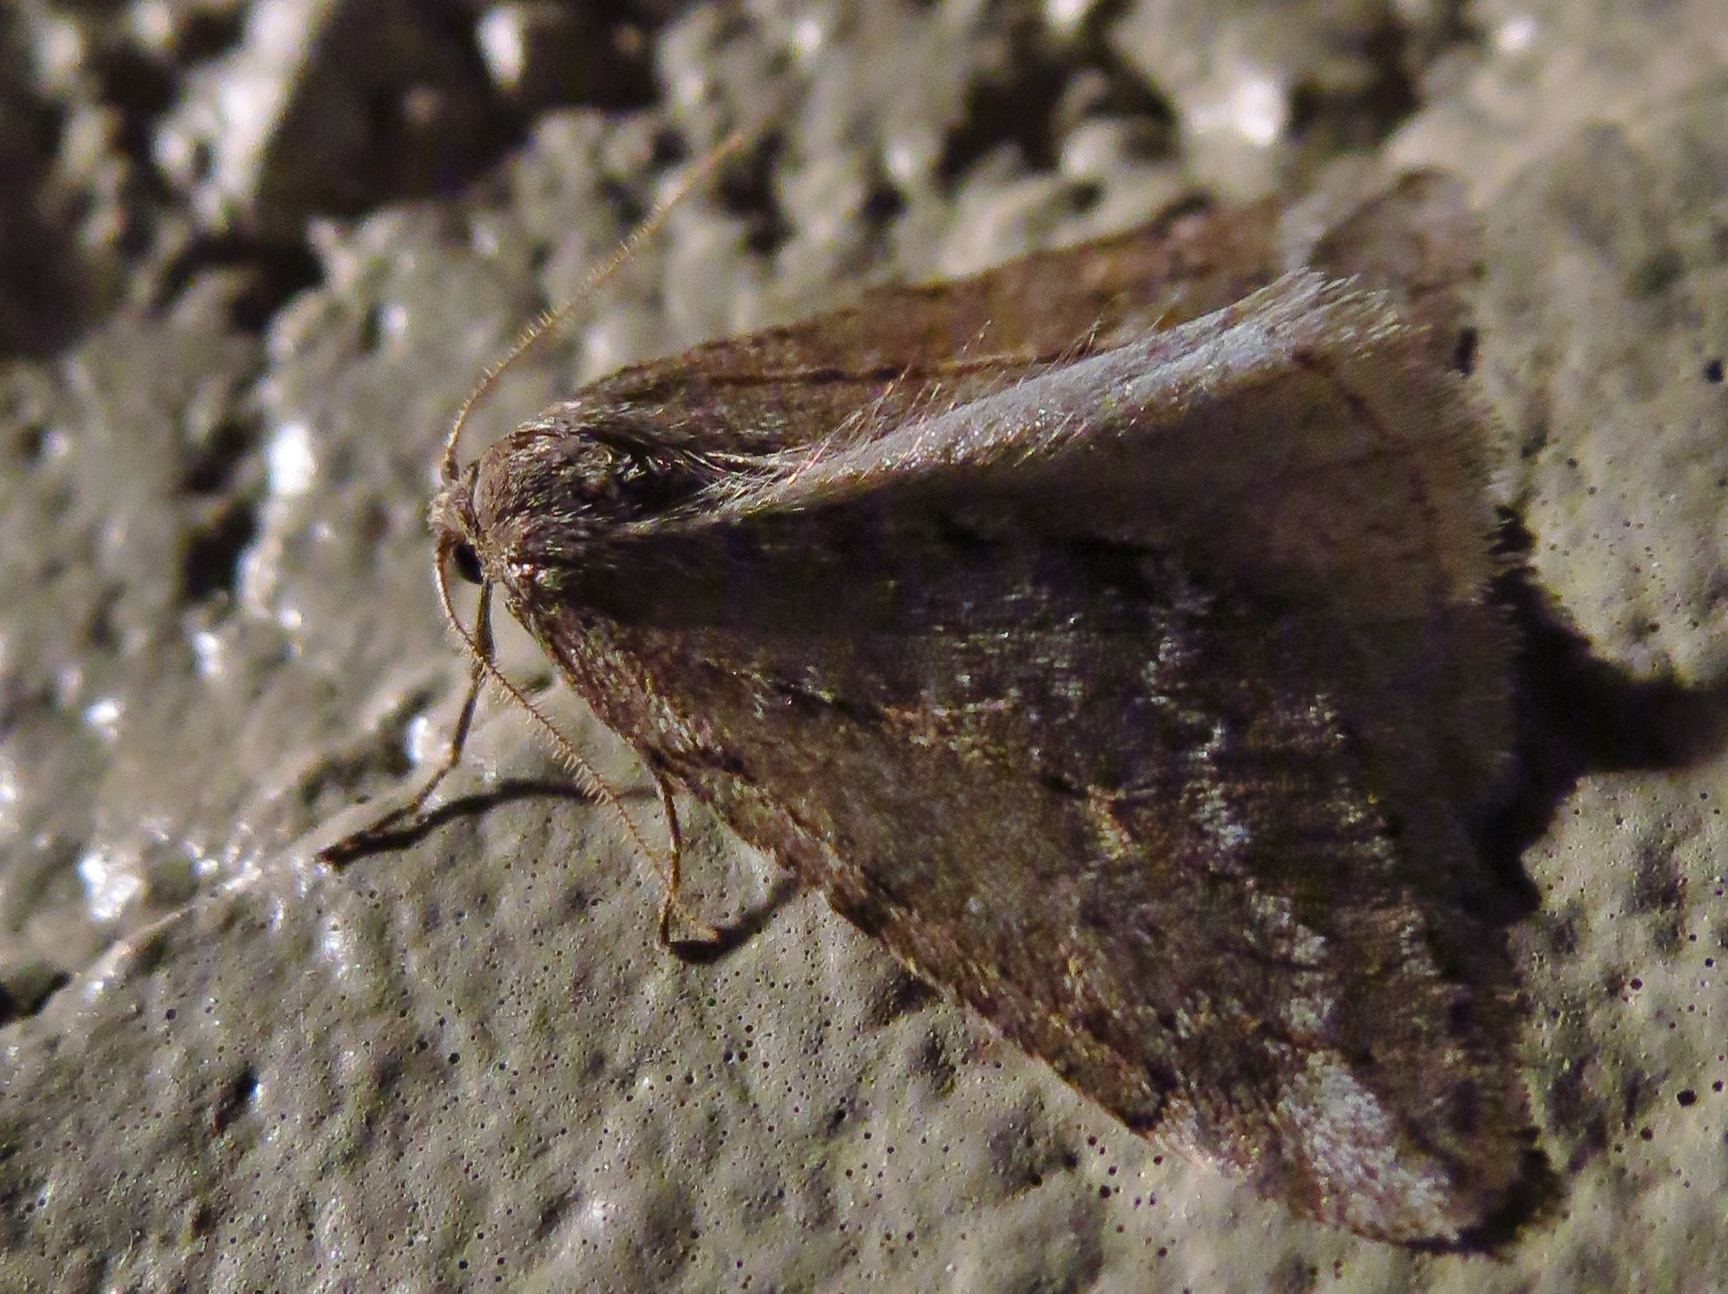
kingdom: Animalia
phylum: Arthropoda
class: Insecta
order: Lepidoptera
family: Geometridae
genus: Paleacrita
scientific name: Paleacrita vernata
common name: Spring cankerworm
